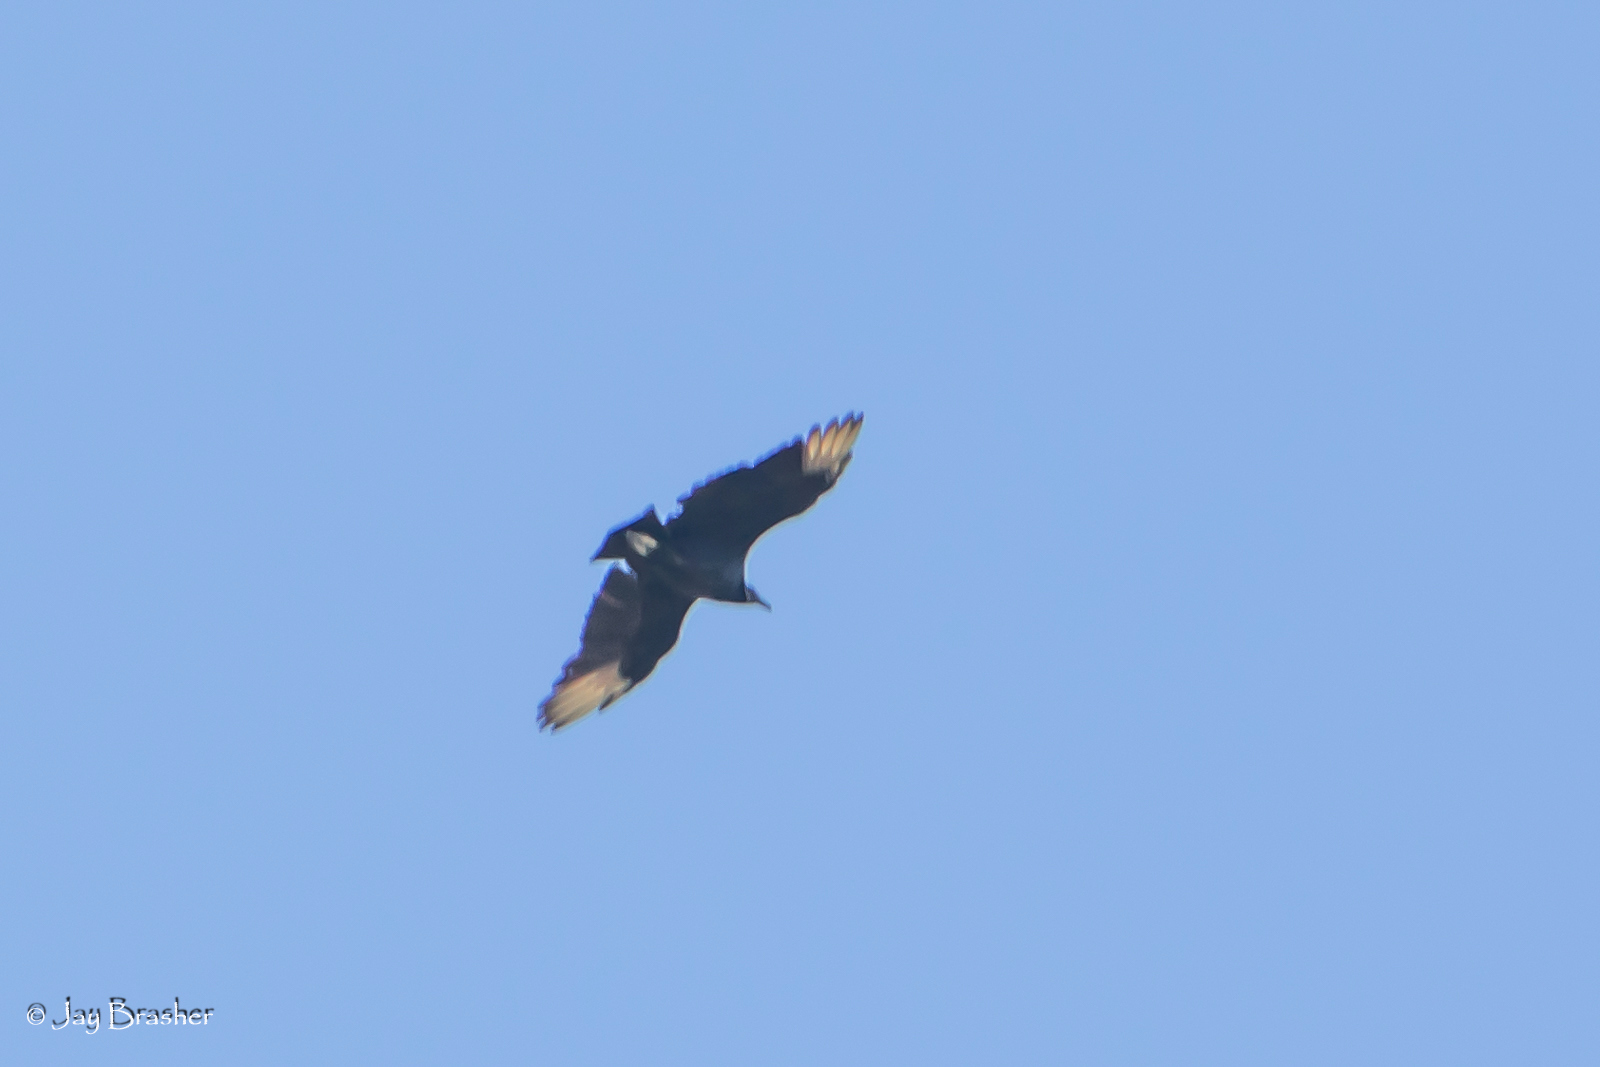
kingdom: Animalia
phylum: Chordata
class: Aves
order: Accipitriformes
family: Cathartidae
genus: Coragyps
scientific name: Coragyps atratus
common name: Black vulture
